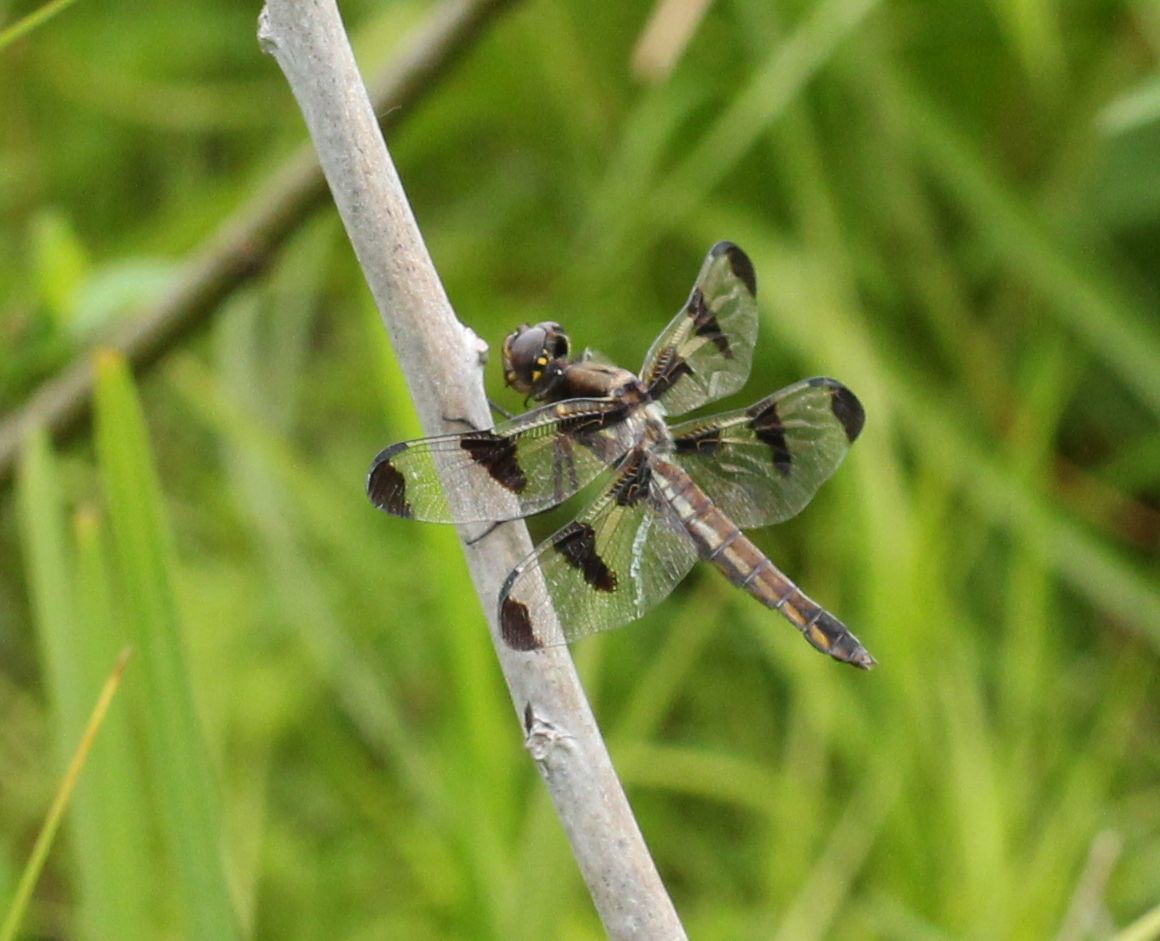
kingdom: Animalia
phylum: Arthropoda
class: Insecta
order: Odonata
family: Libellulidae
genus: Libellula
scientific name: Libellula pulchella
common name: Twelve-spotted skimmer
